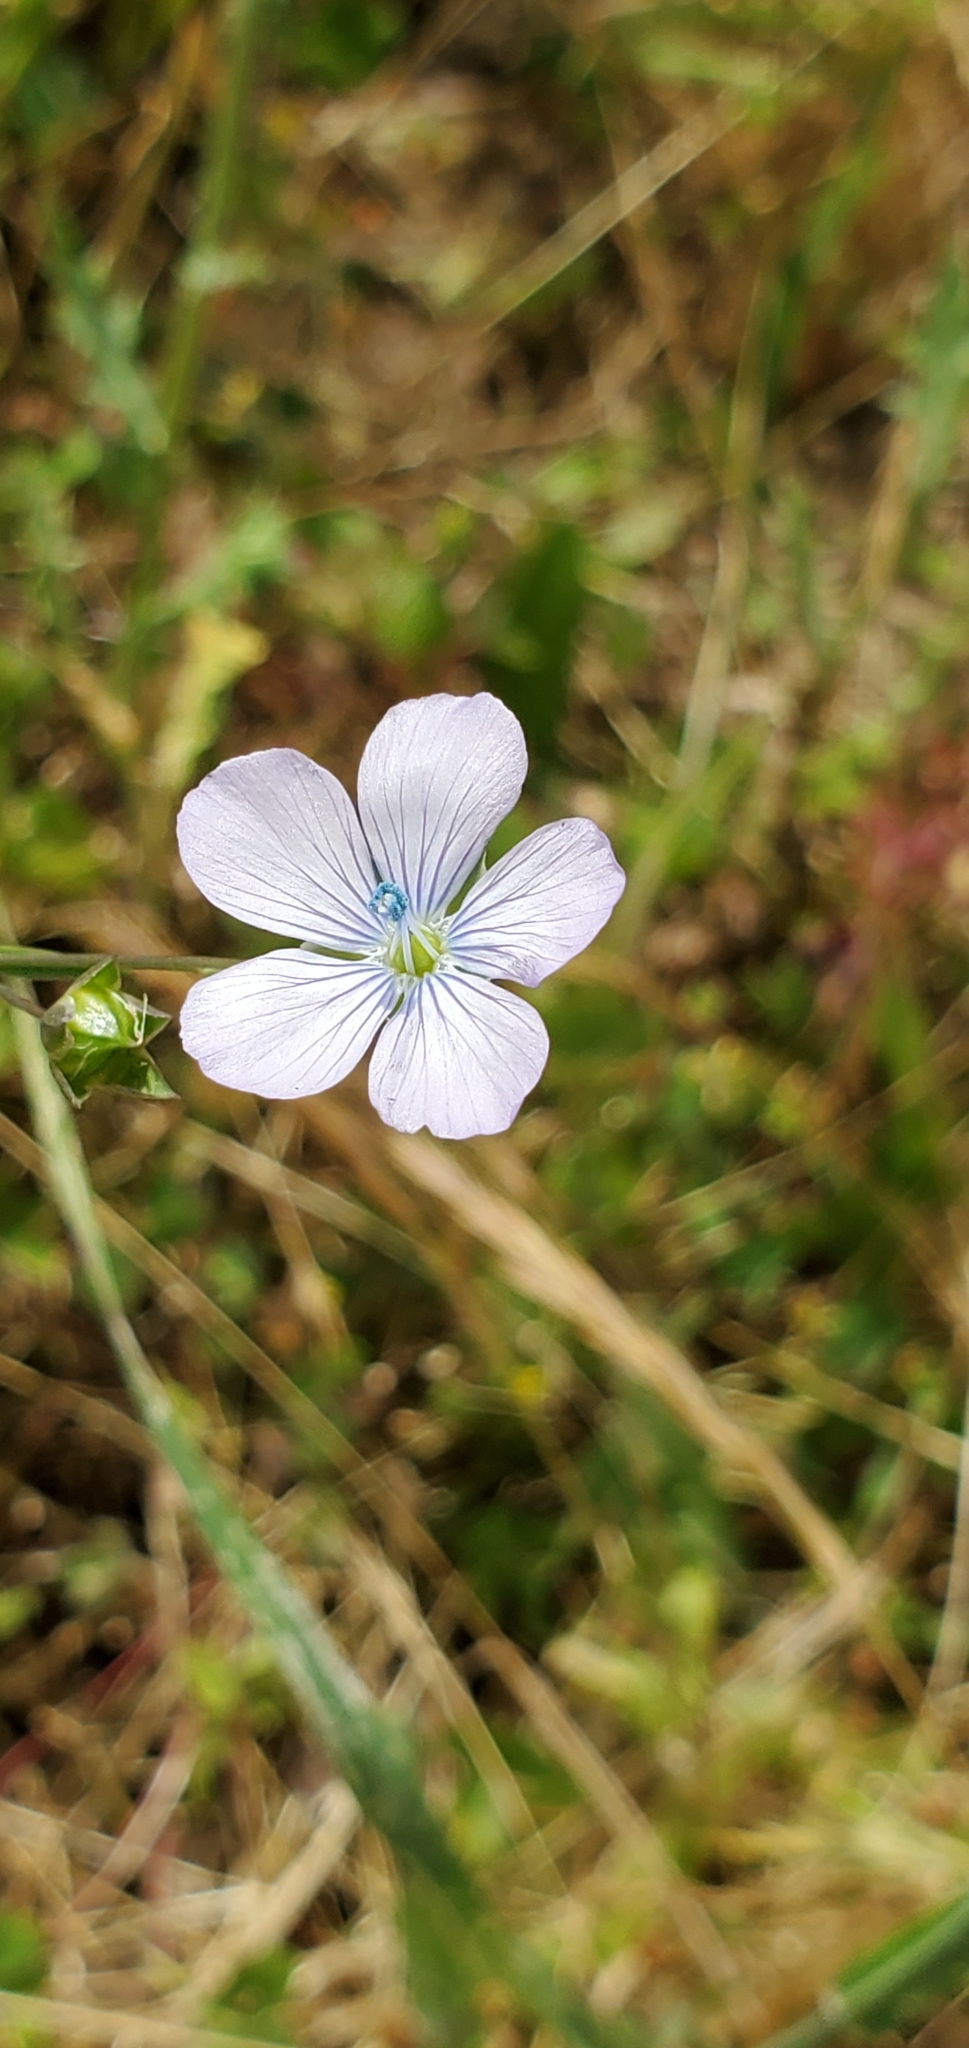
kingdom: Plantae
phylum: Tracheophyta
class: Magnoliopsida
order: Malpighiales
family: Linaceae
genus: Linum
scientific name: Linum bienne
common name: Pale flax
